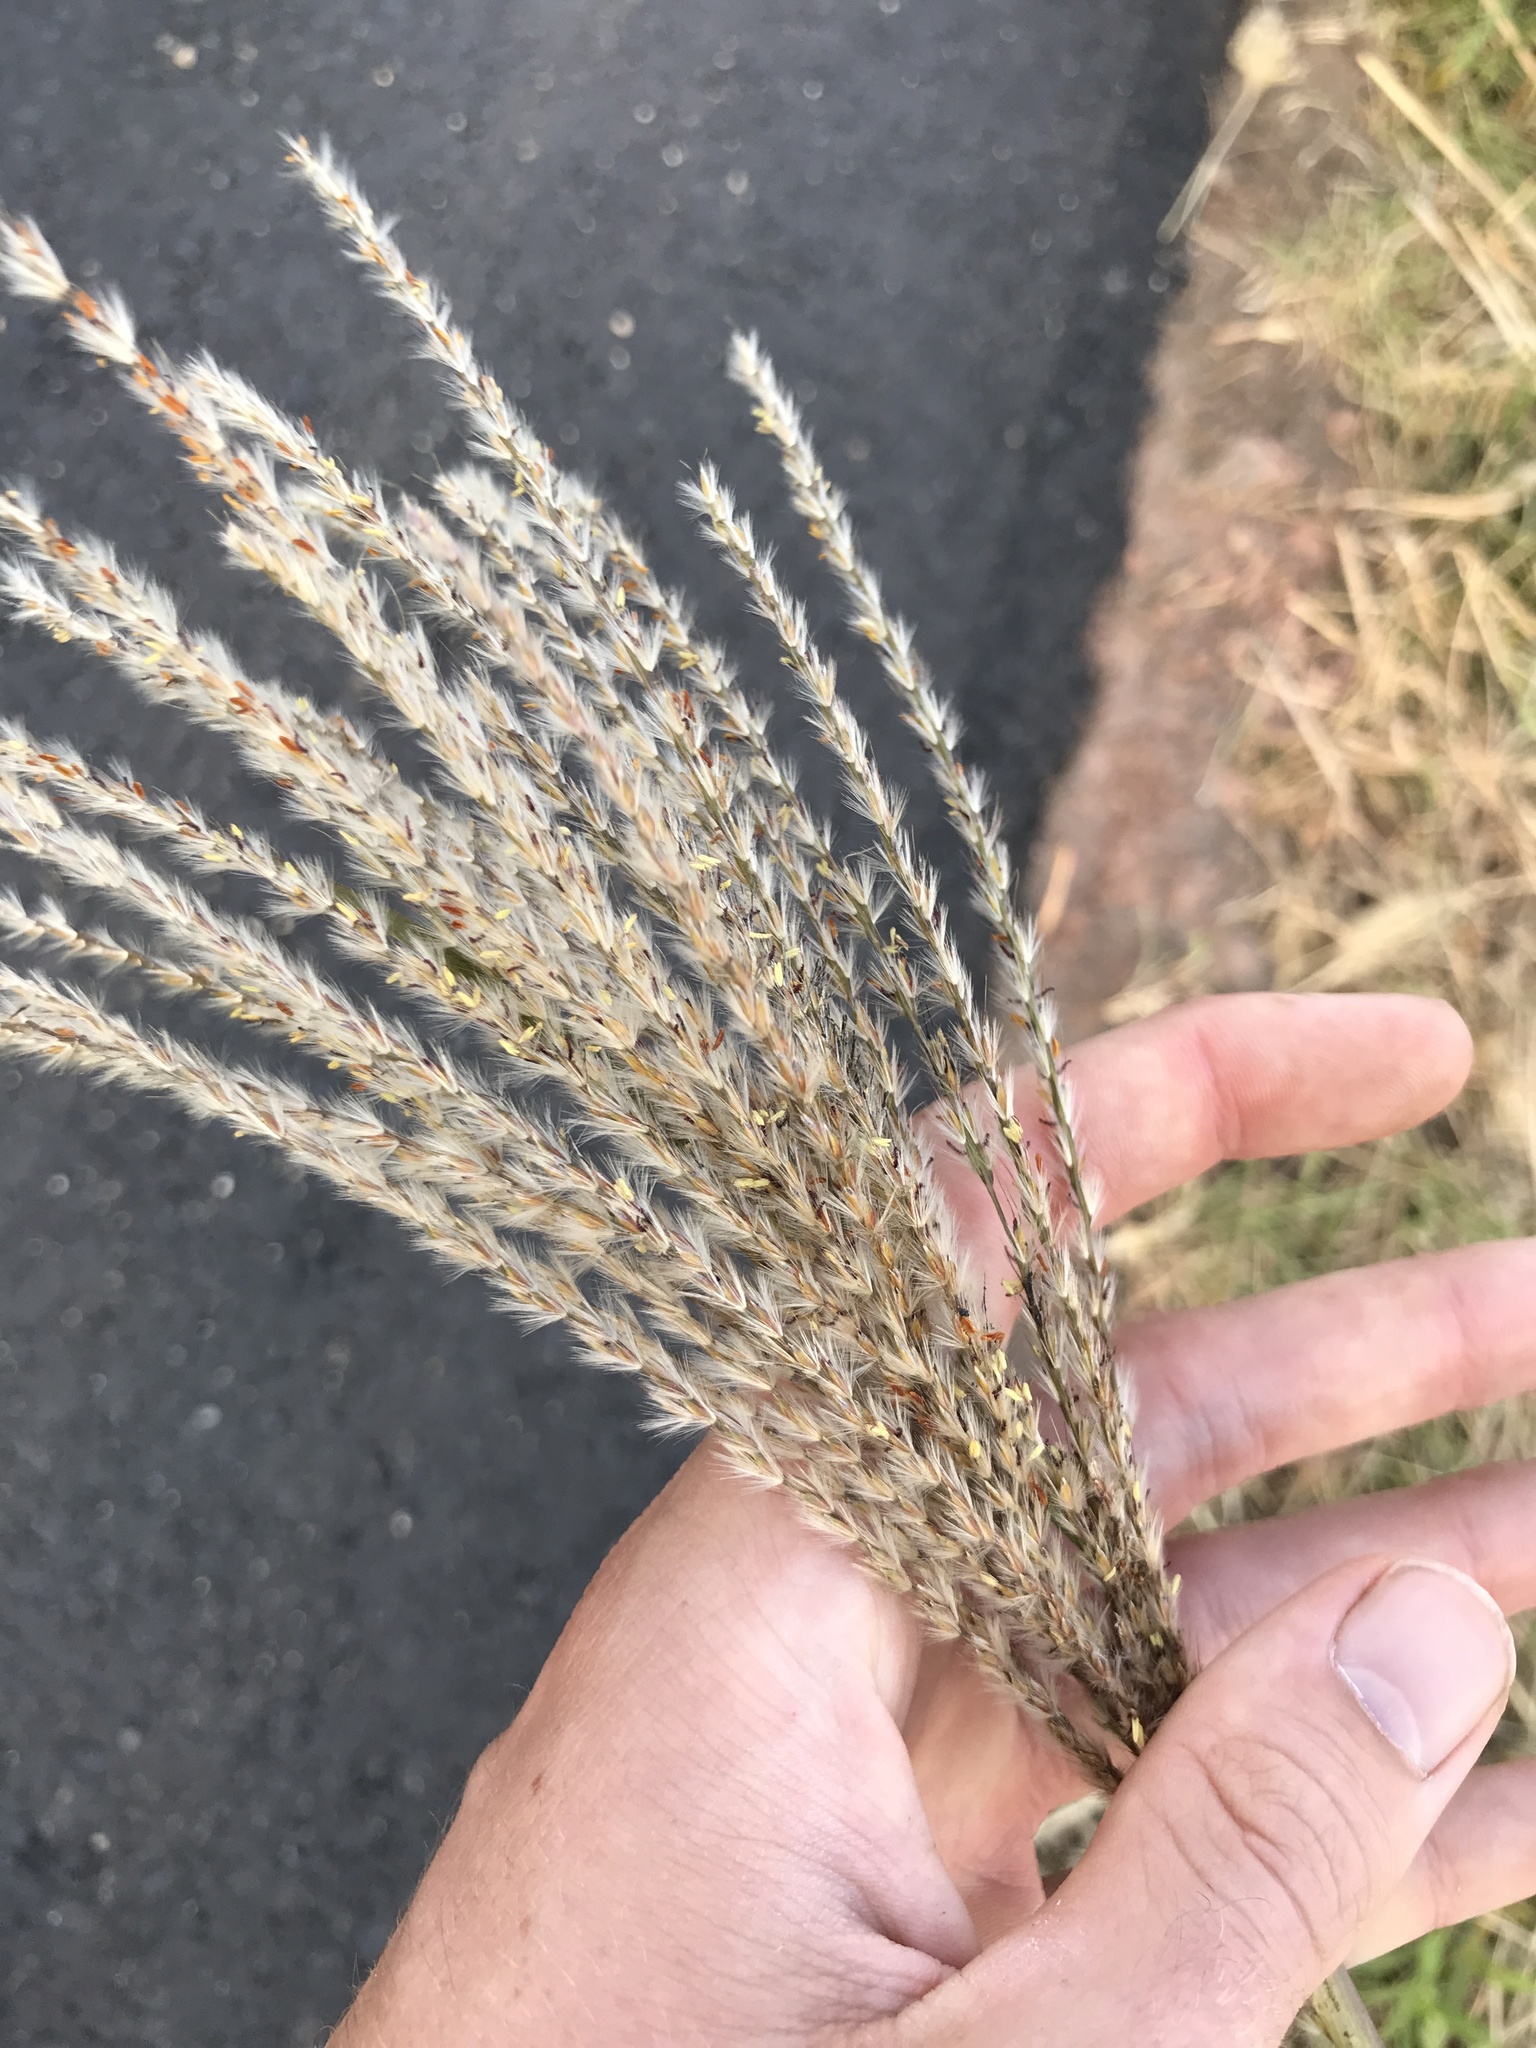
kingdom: Plantae
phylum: Tracheophyta
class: Liliopsida
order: Poales
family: Poaceae
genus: Miscanthus
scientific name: Miscanthus sinensis
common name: Chinese silvergrass
